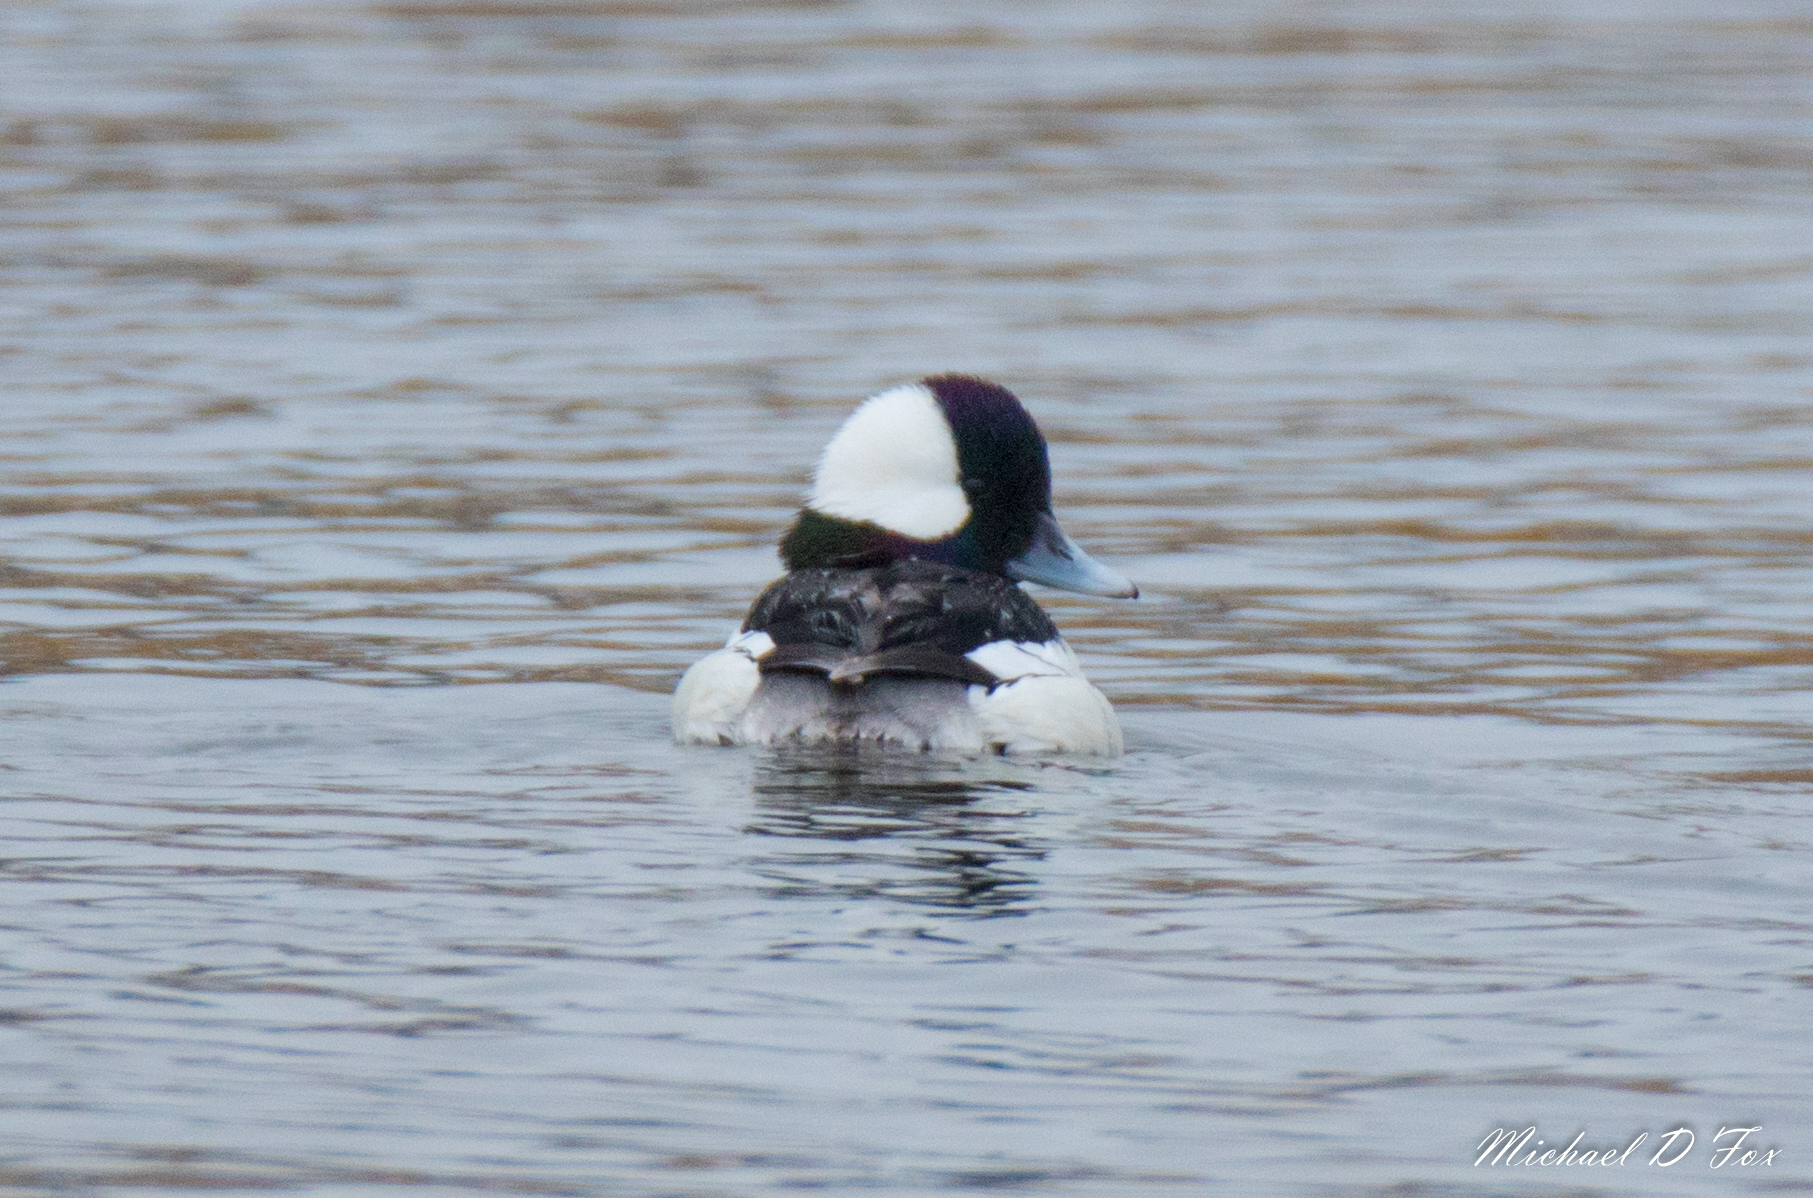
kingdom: Animalia
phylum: Chordata
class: Aves
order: Anseriformes
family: Anatidae
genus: Bucephala
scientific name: Bucephala albeola
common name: Bufflehead
